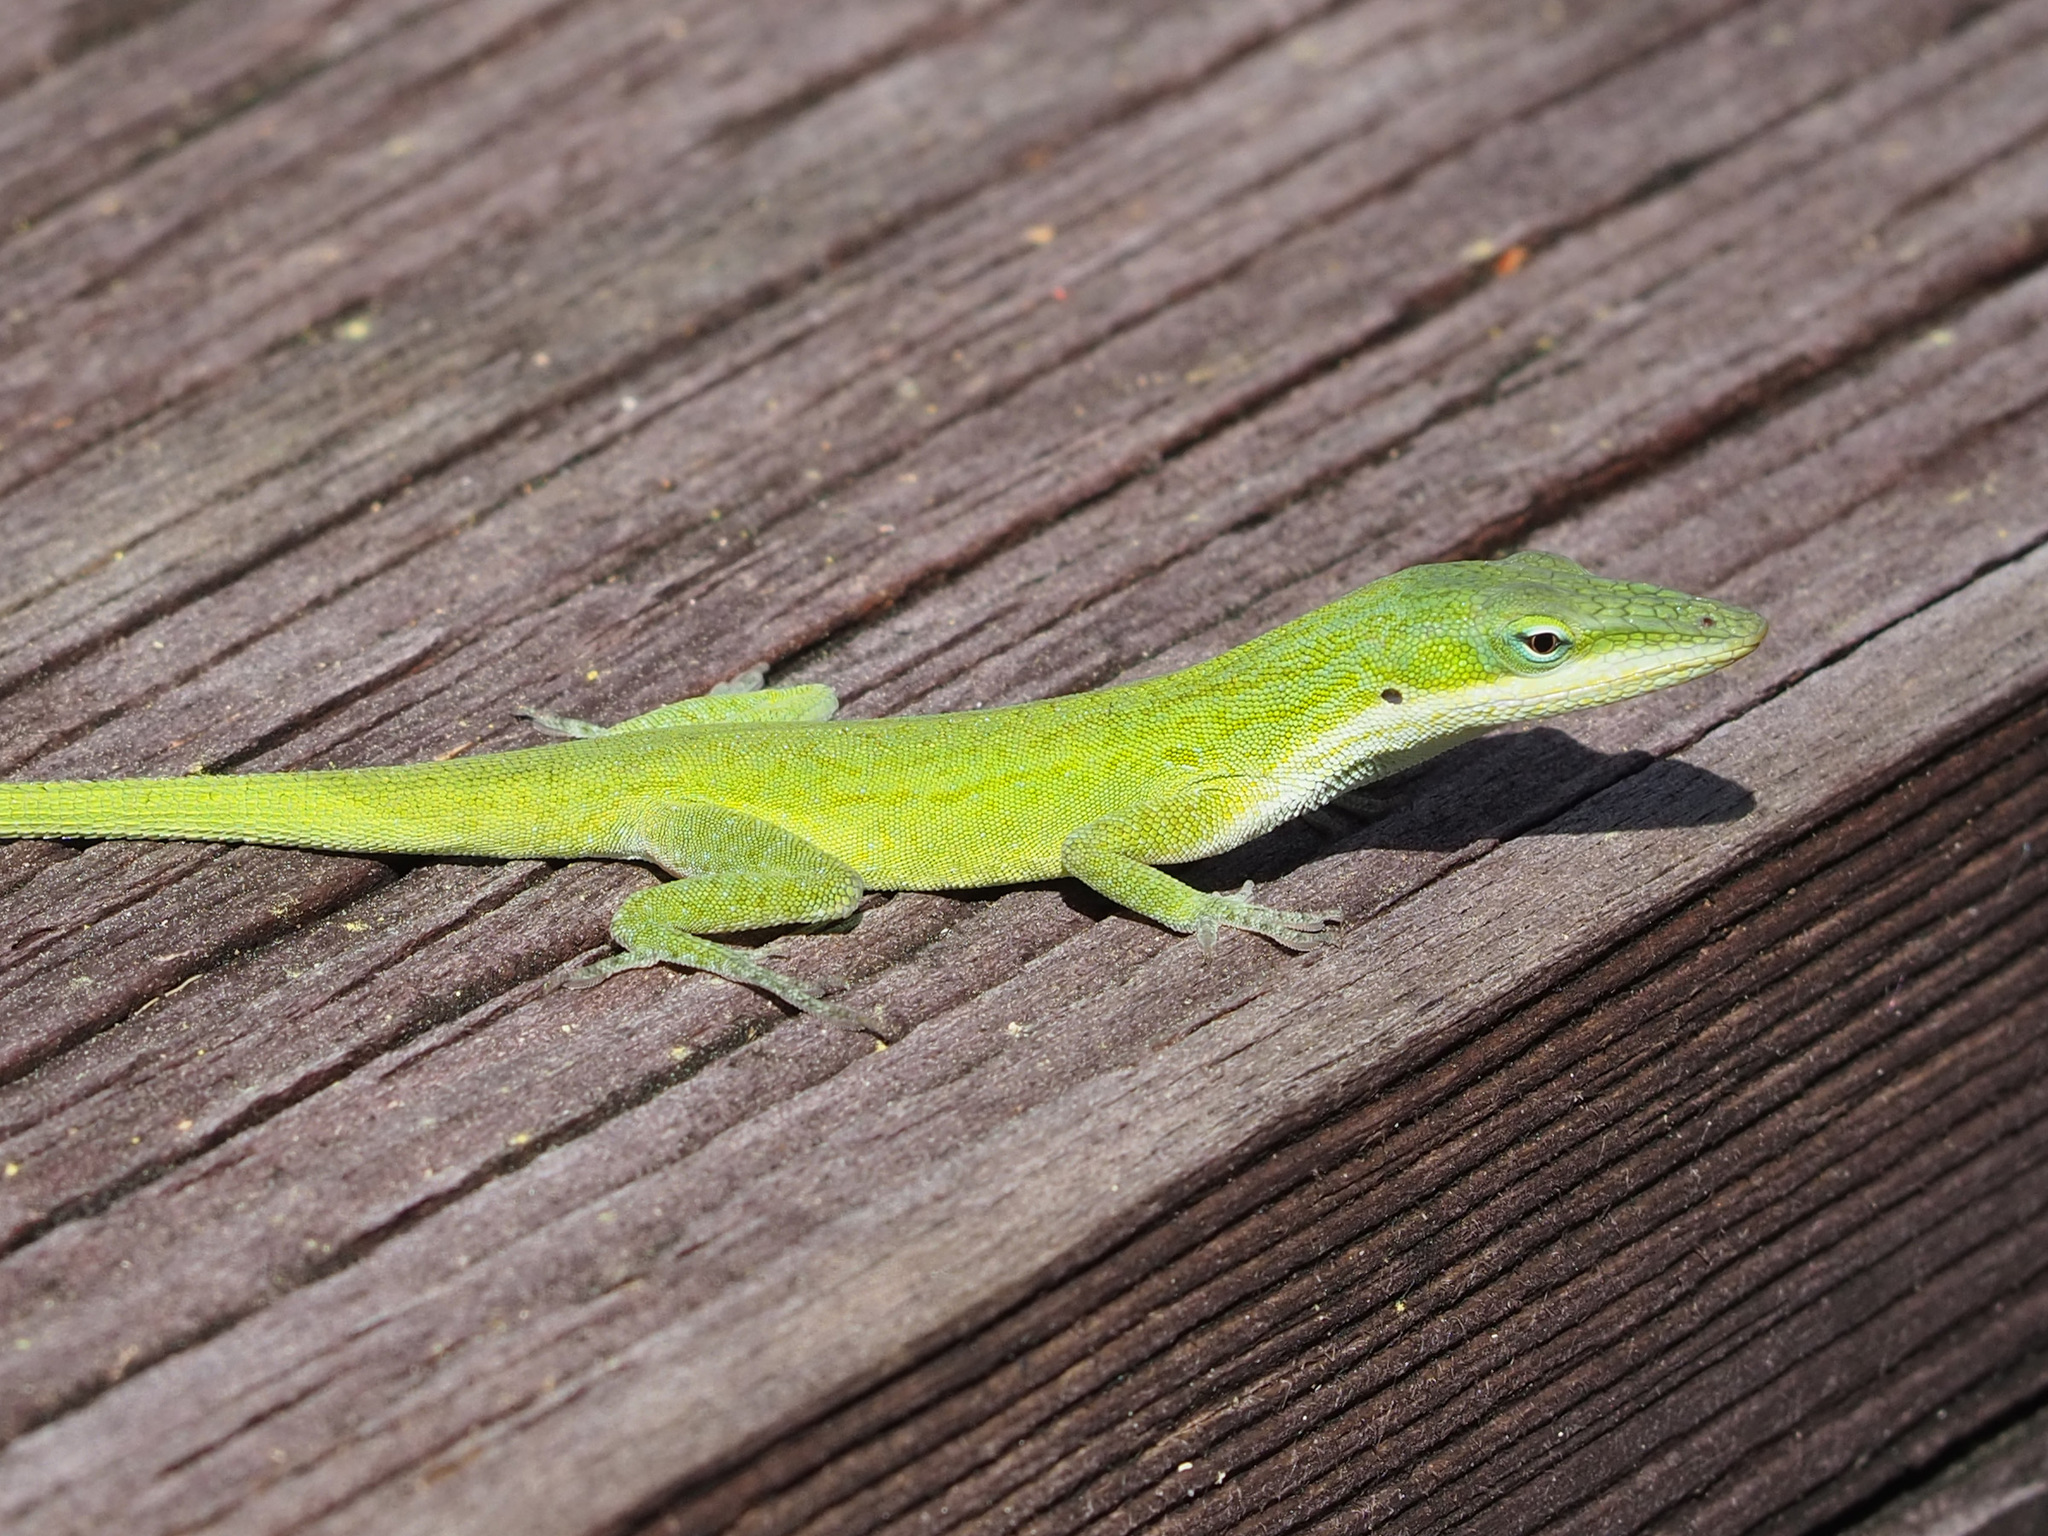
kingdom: Animalia
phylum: Chordata
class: Squamata
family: Dactyloidae
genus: Anolis
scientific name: Anolis carolinensis
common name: Green anole
